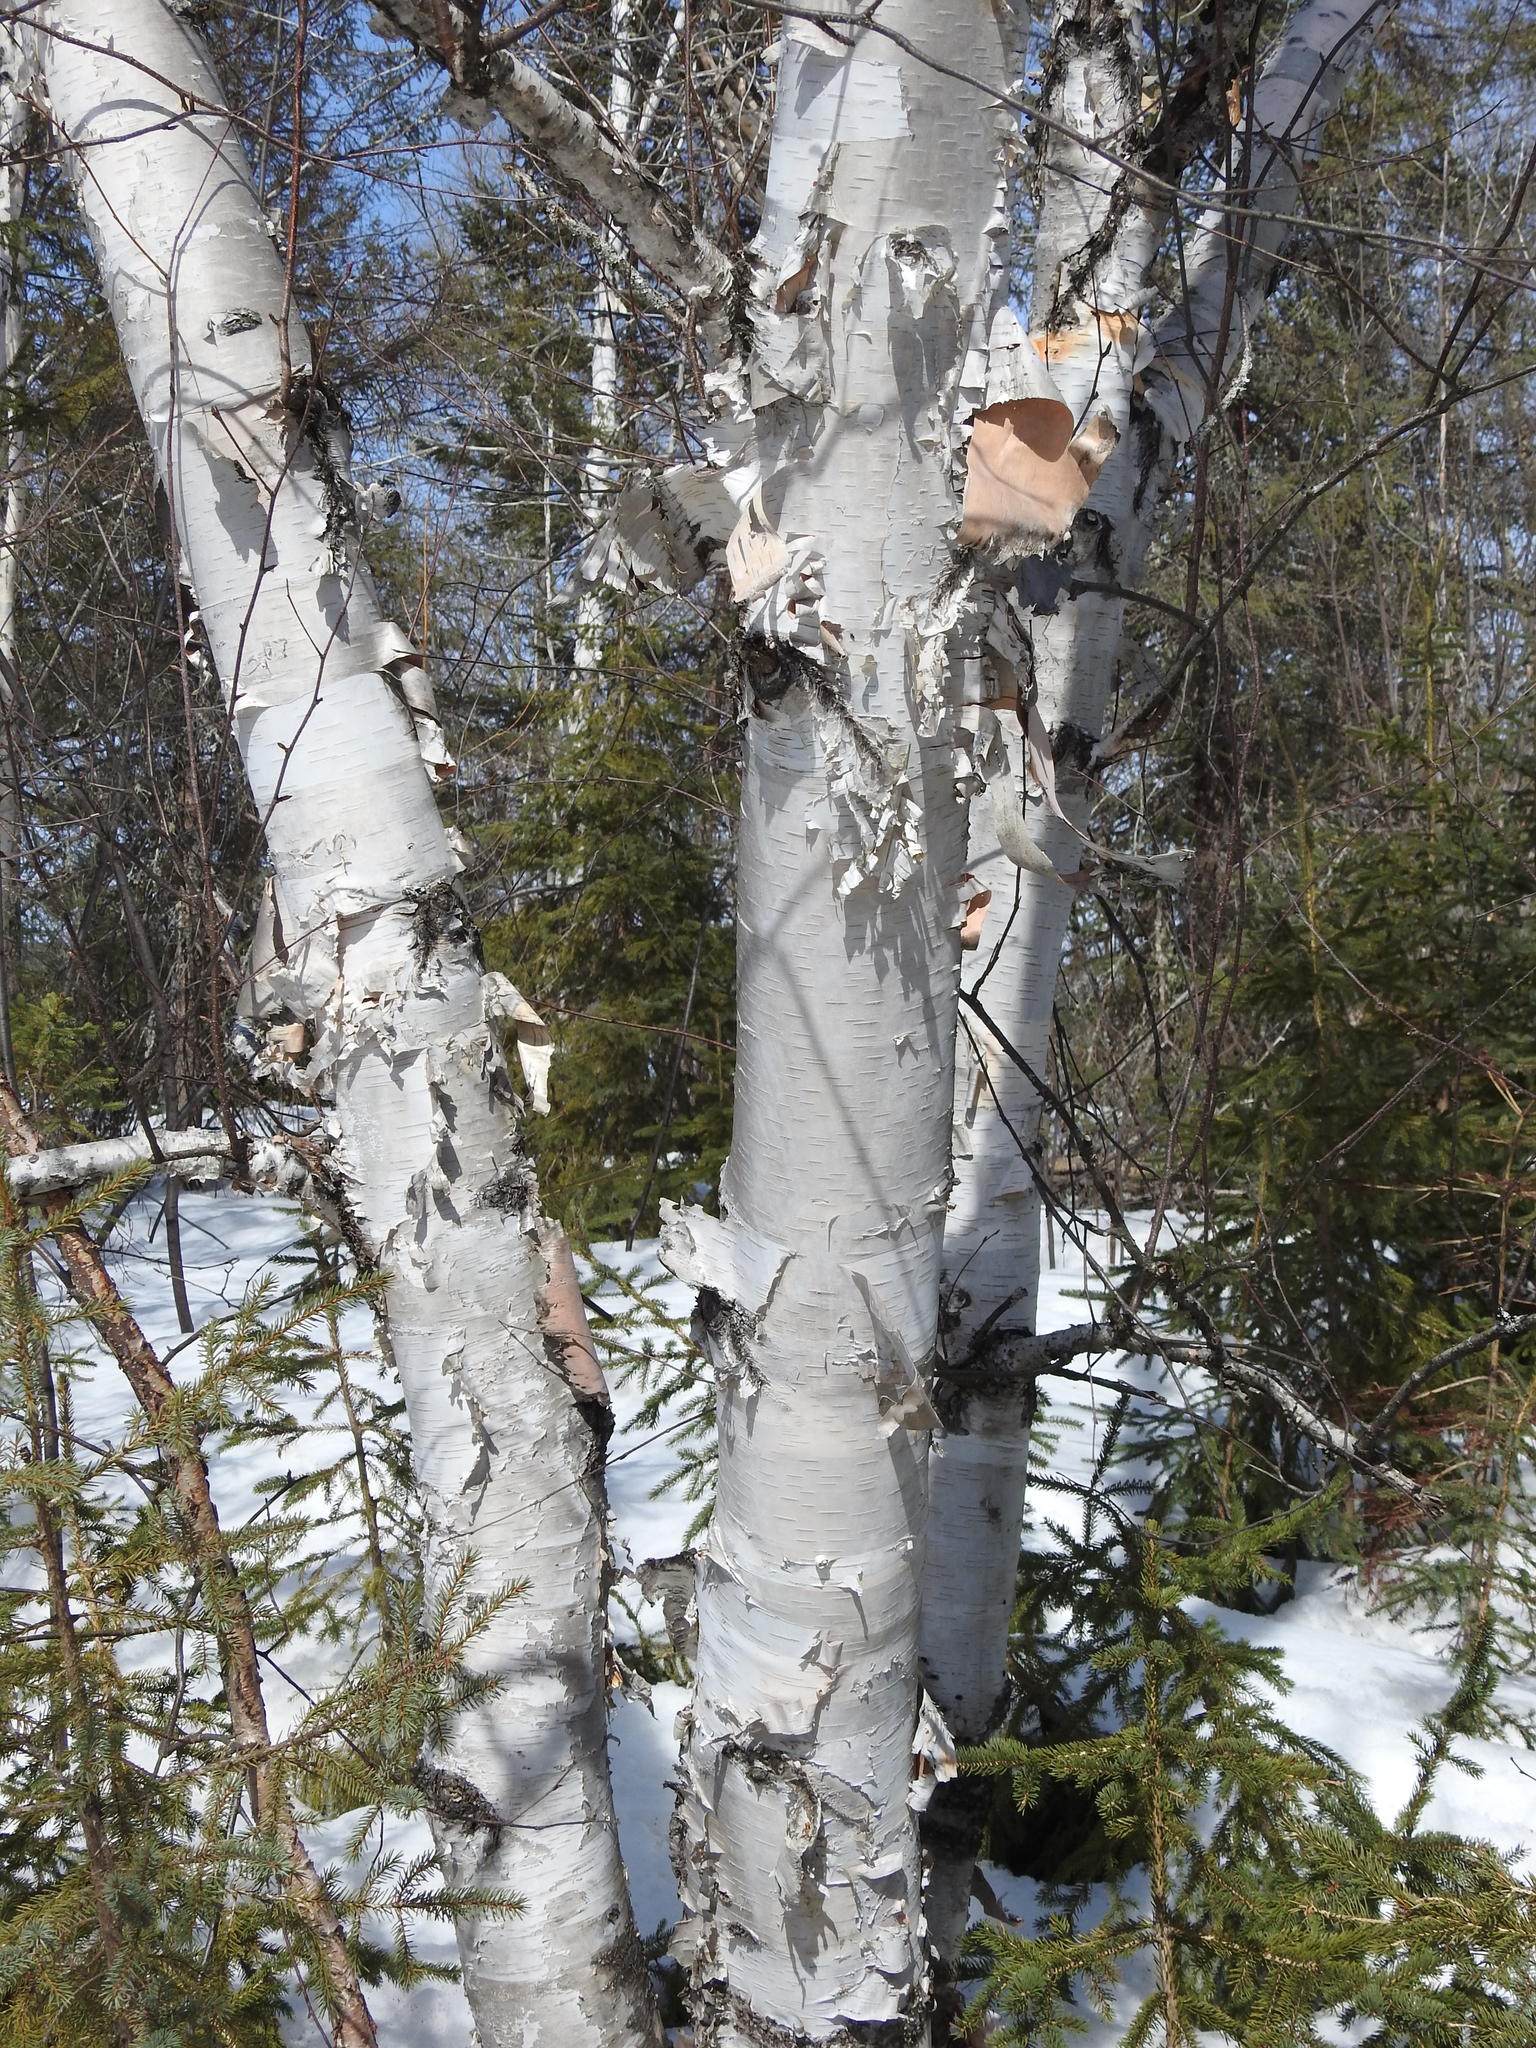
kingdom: Plantae
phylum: Tracheophyta
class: Magnoliopsida
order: Fagales
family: Betulaceae
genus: Betula
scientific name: Betula papyrifera
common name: Paper birch
